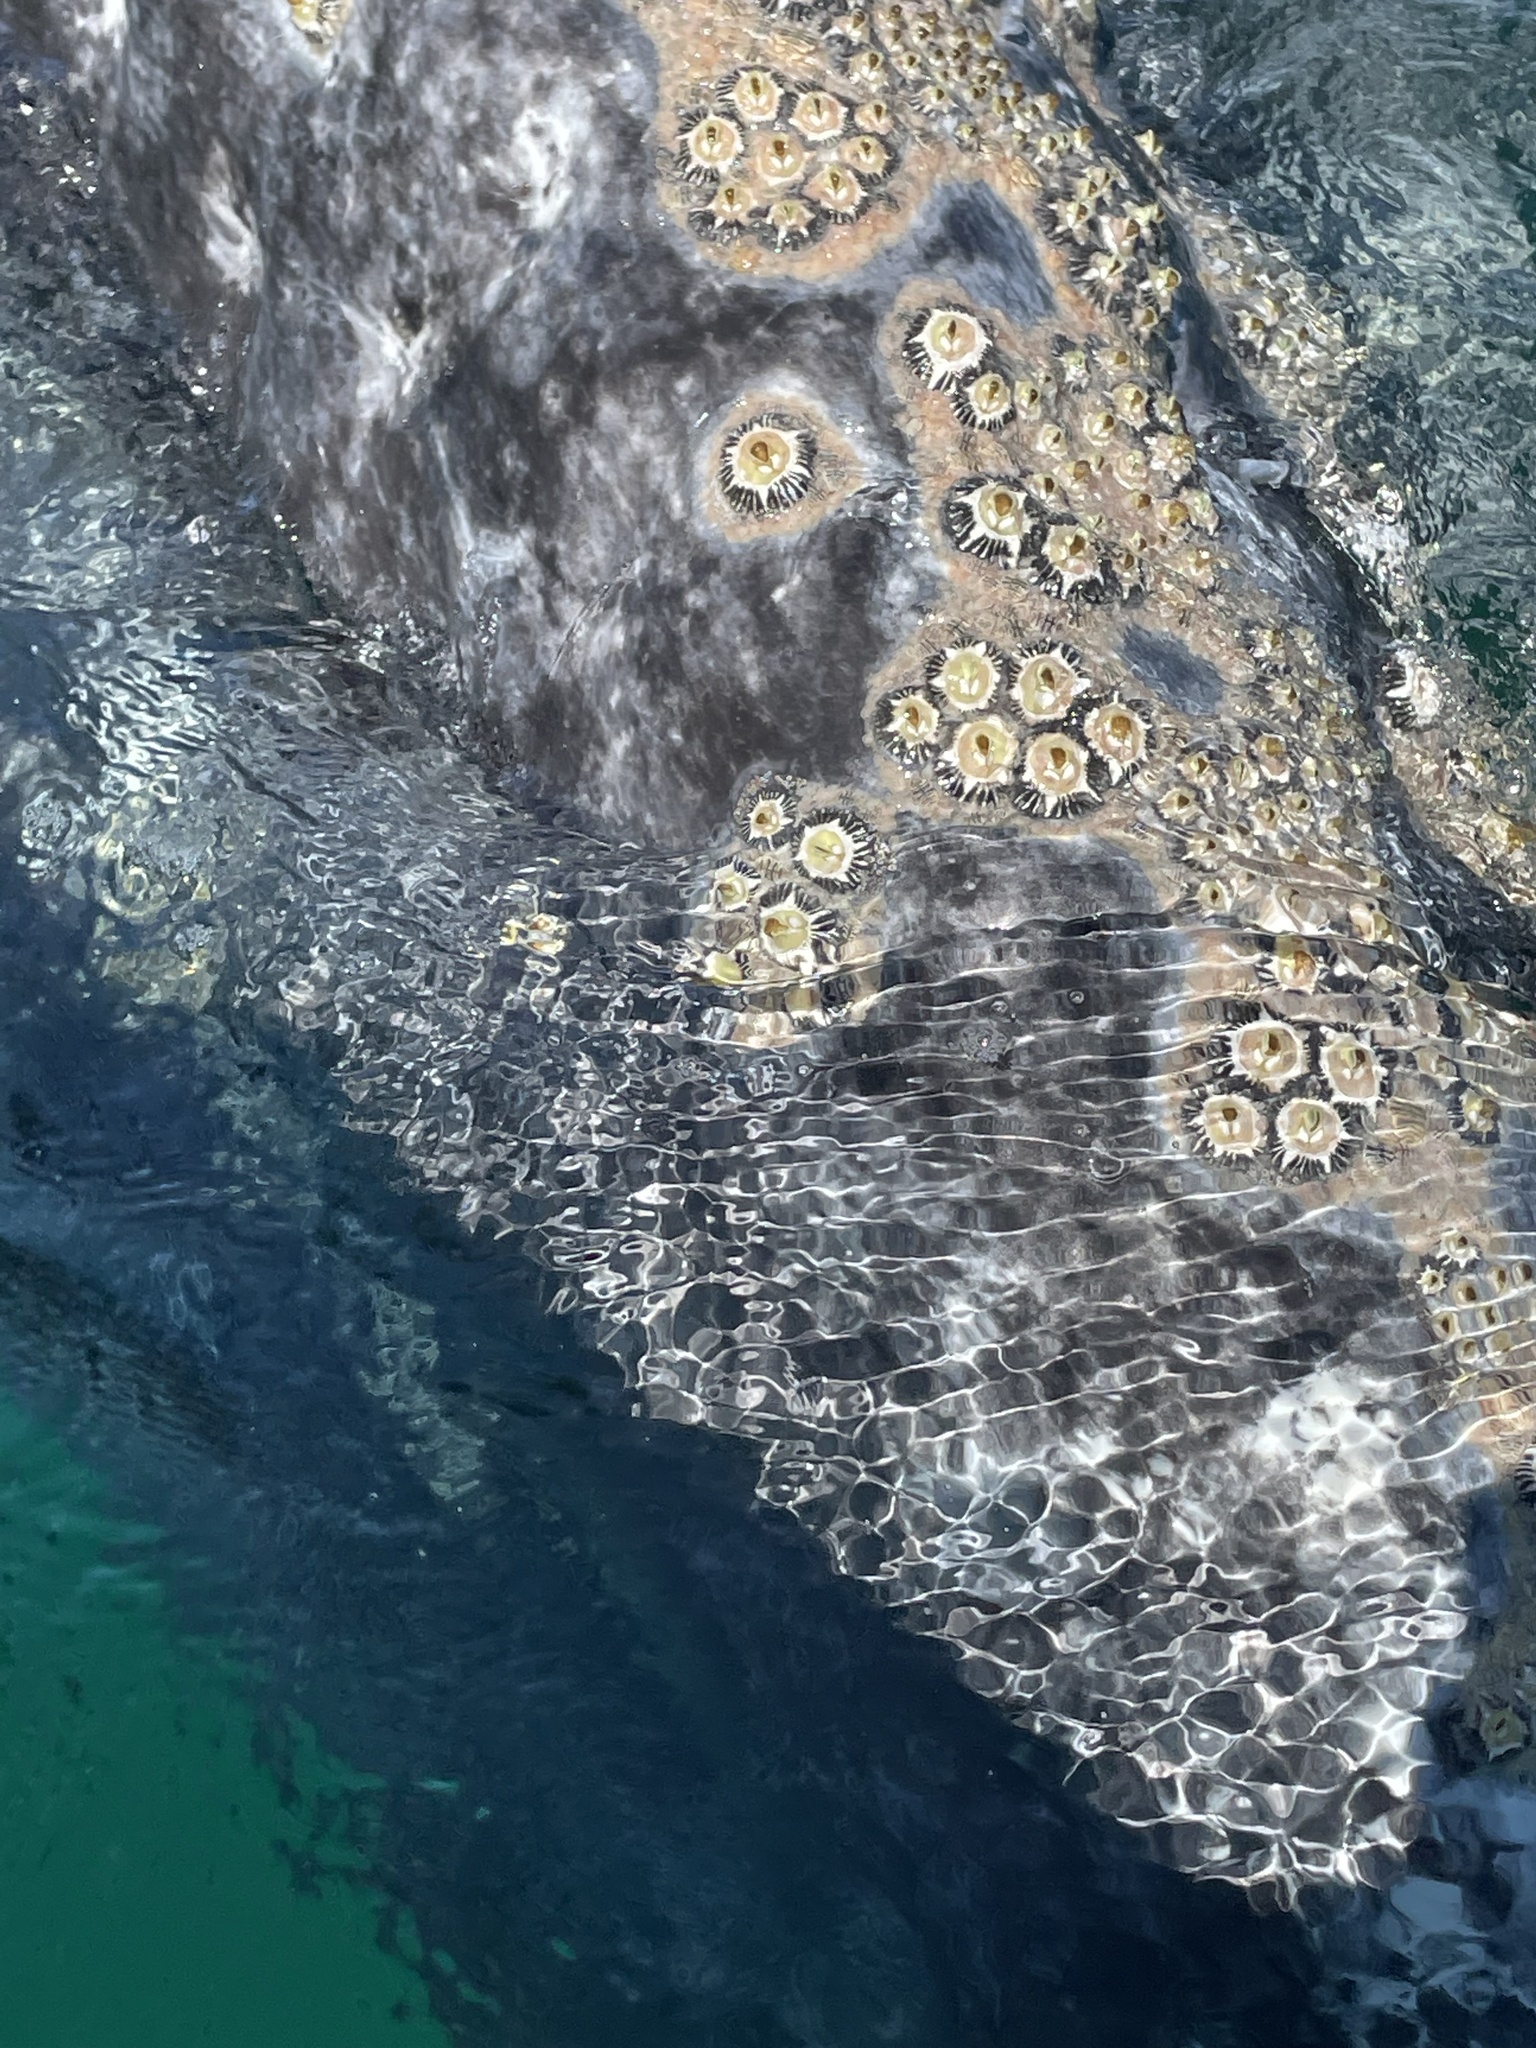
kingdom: Animalia
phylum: Arthropoda
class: Maxillopoda
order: Sessilia
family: Coronulidae
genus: Cryptolepas
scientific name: Cryptolepas rhachianecti
